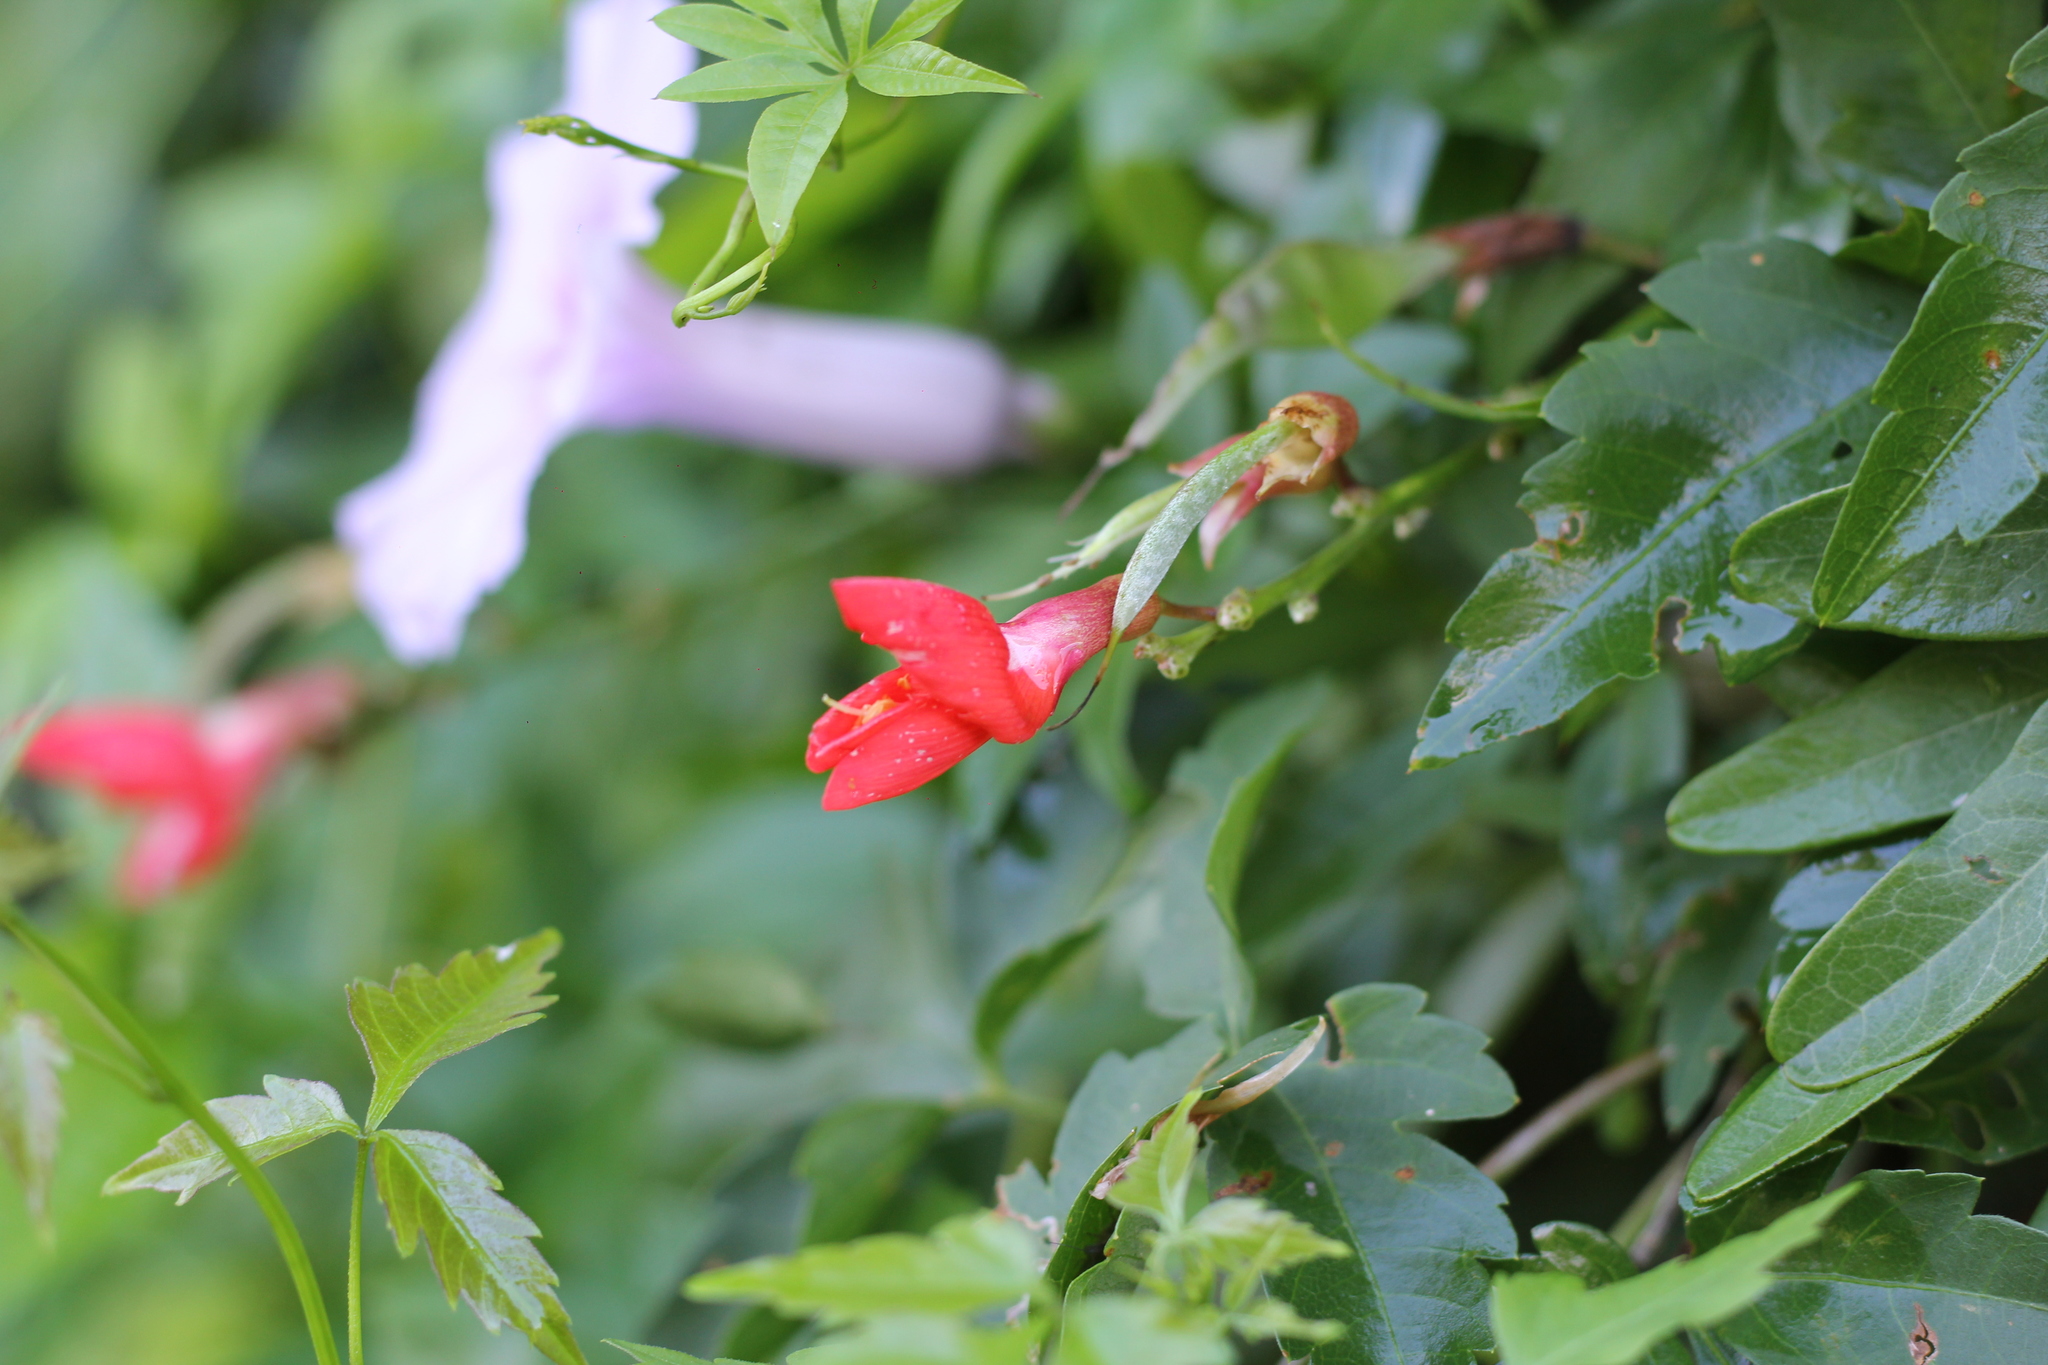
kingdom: Plantae
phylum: Tracheophyta
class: Magnoliopsida
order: Fabales
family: Fabaceae
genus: Camptosema
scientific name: Camptosema rubicundum
